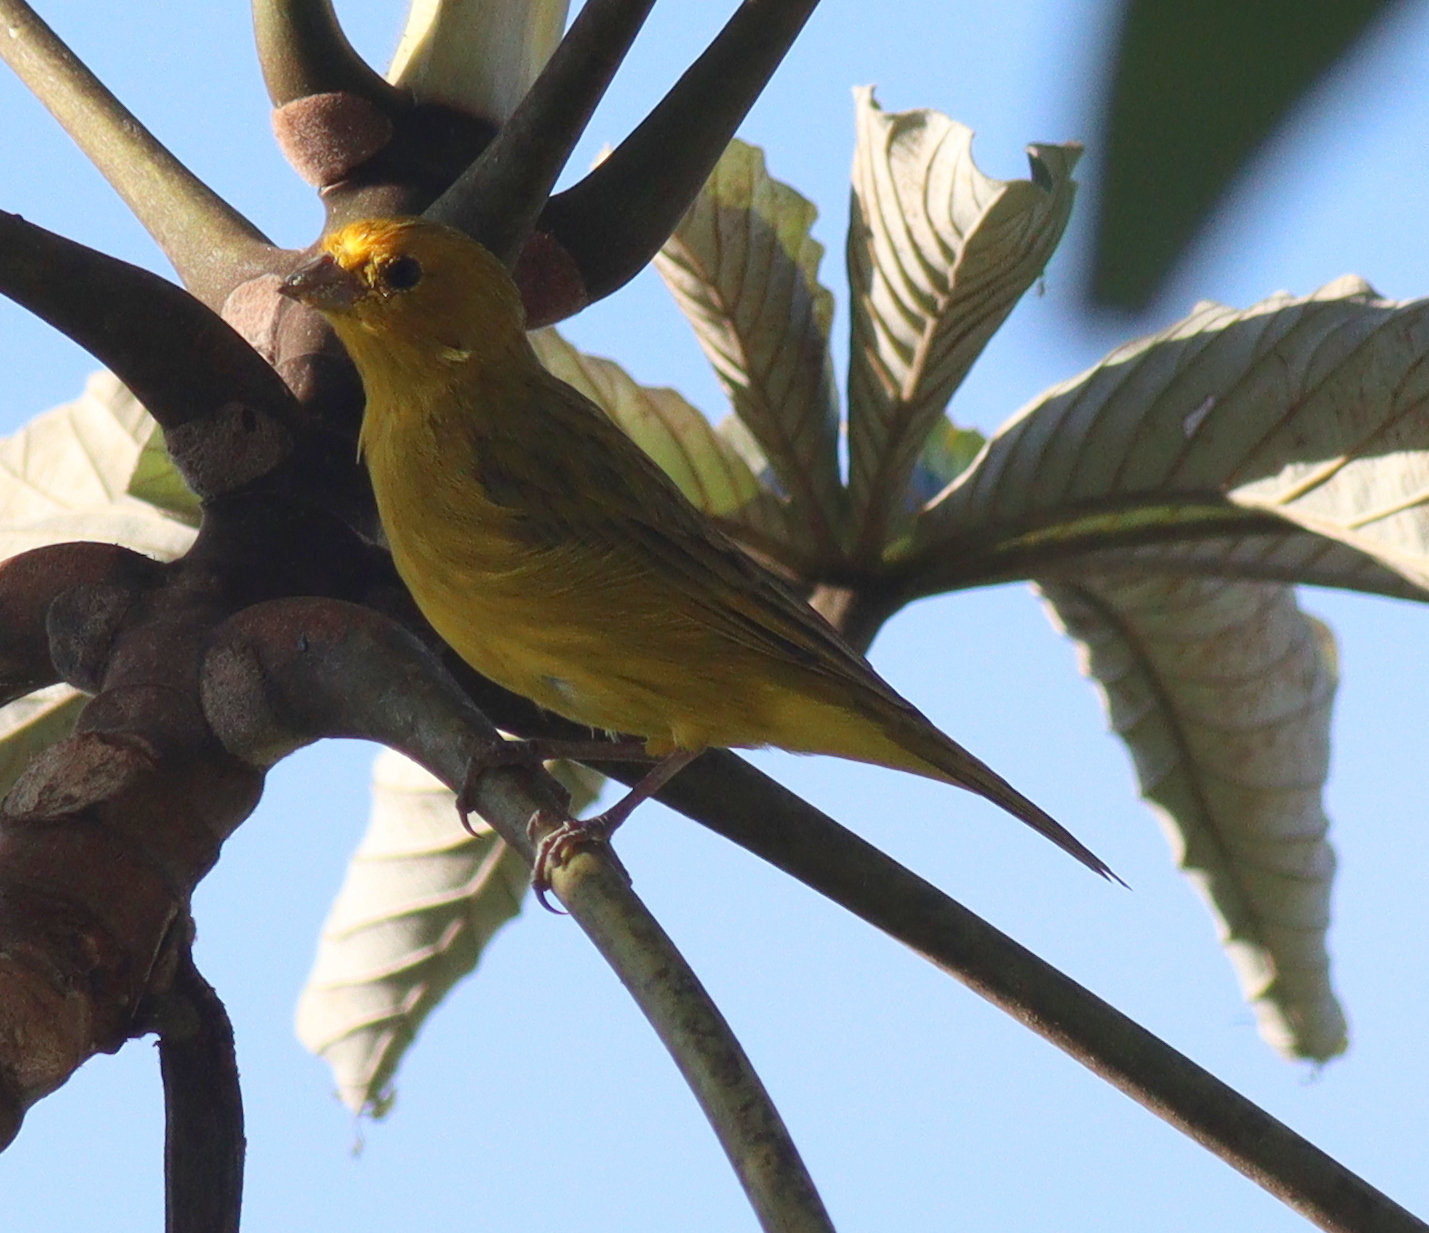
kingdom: Animalia
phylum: Chordata
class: Aves
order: Passeriformes
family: Thraupidae
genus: Sicalis
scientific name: Sicalis flaveola
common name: Saffron finch
